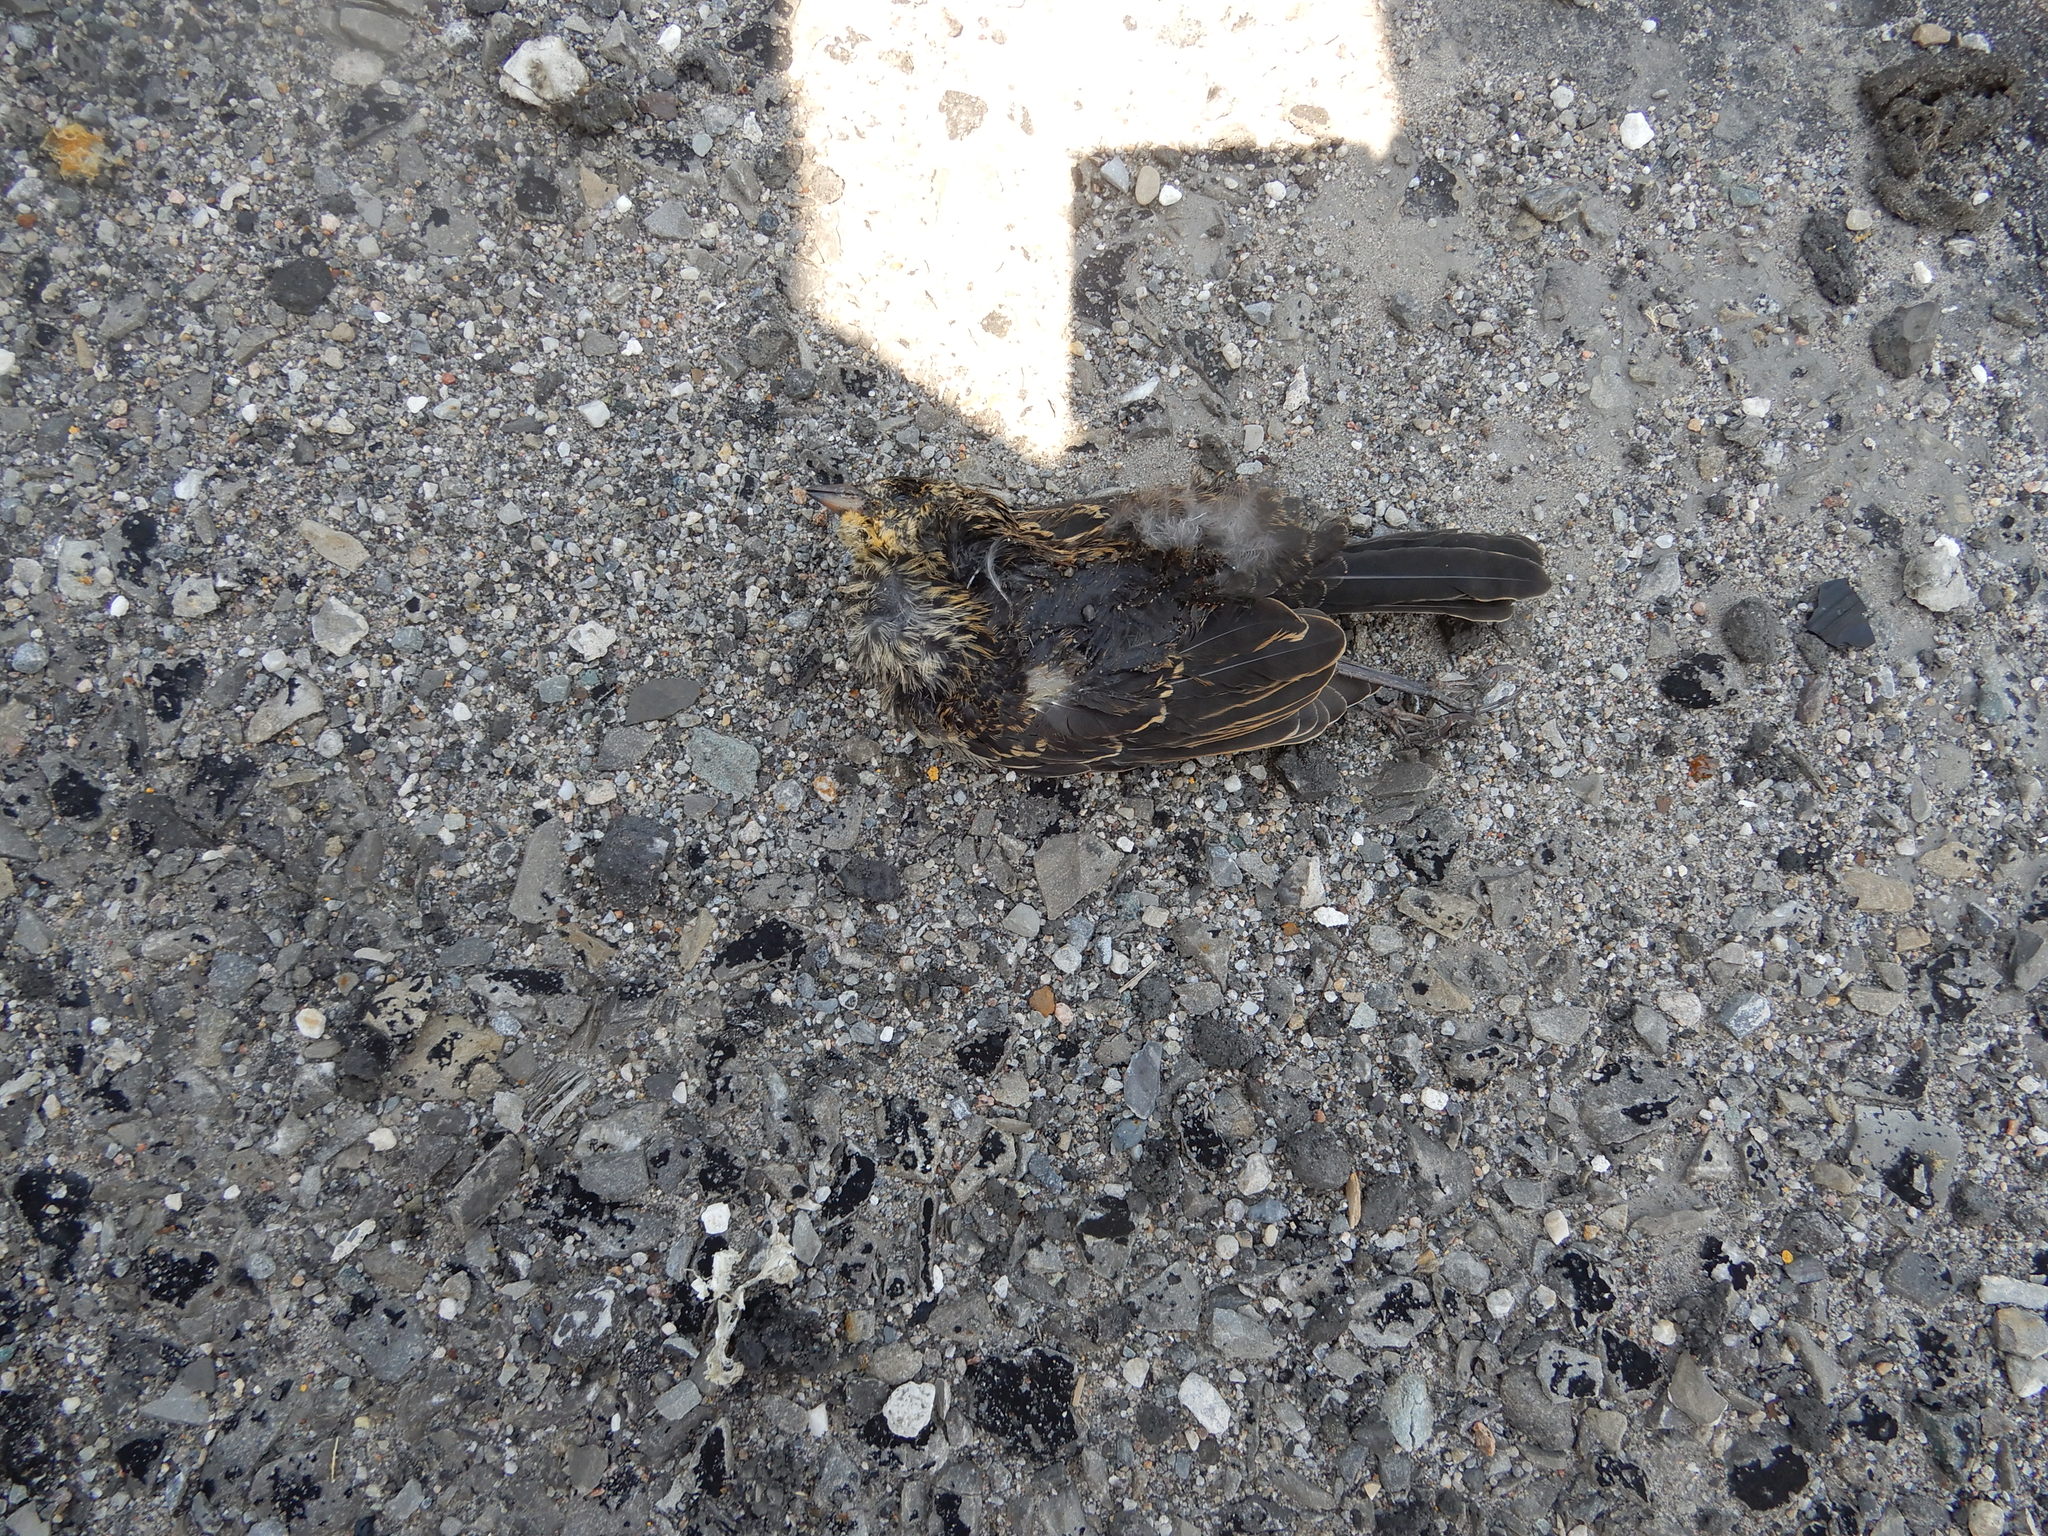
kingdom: Animalia
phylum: Chordata
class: Aves
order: Passeriformes
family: Icteridae
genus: Agelaius
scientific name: Agelaius phoeniceus
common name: Red-winged blackbird
